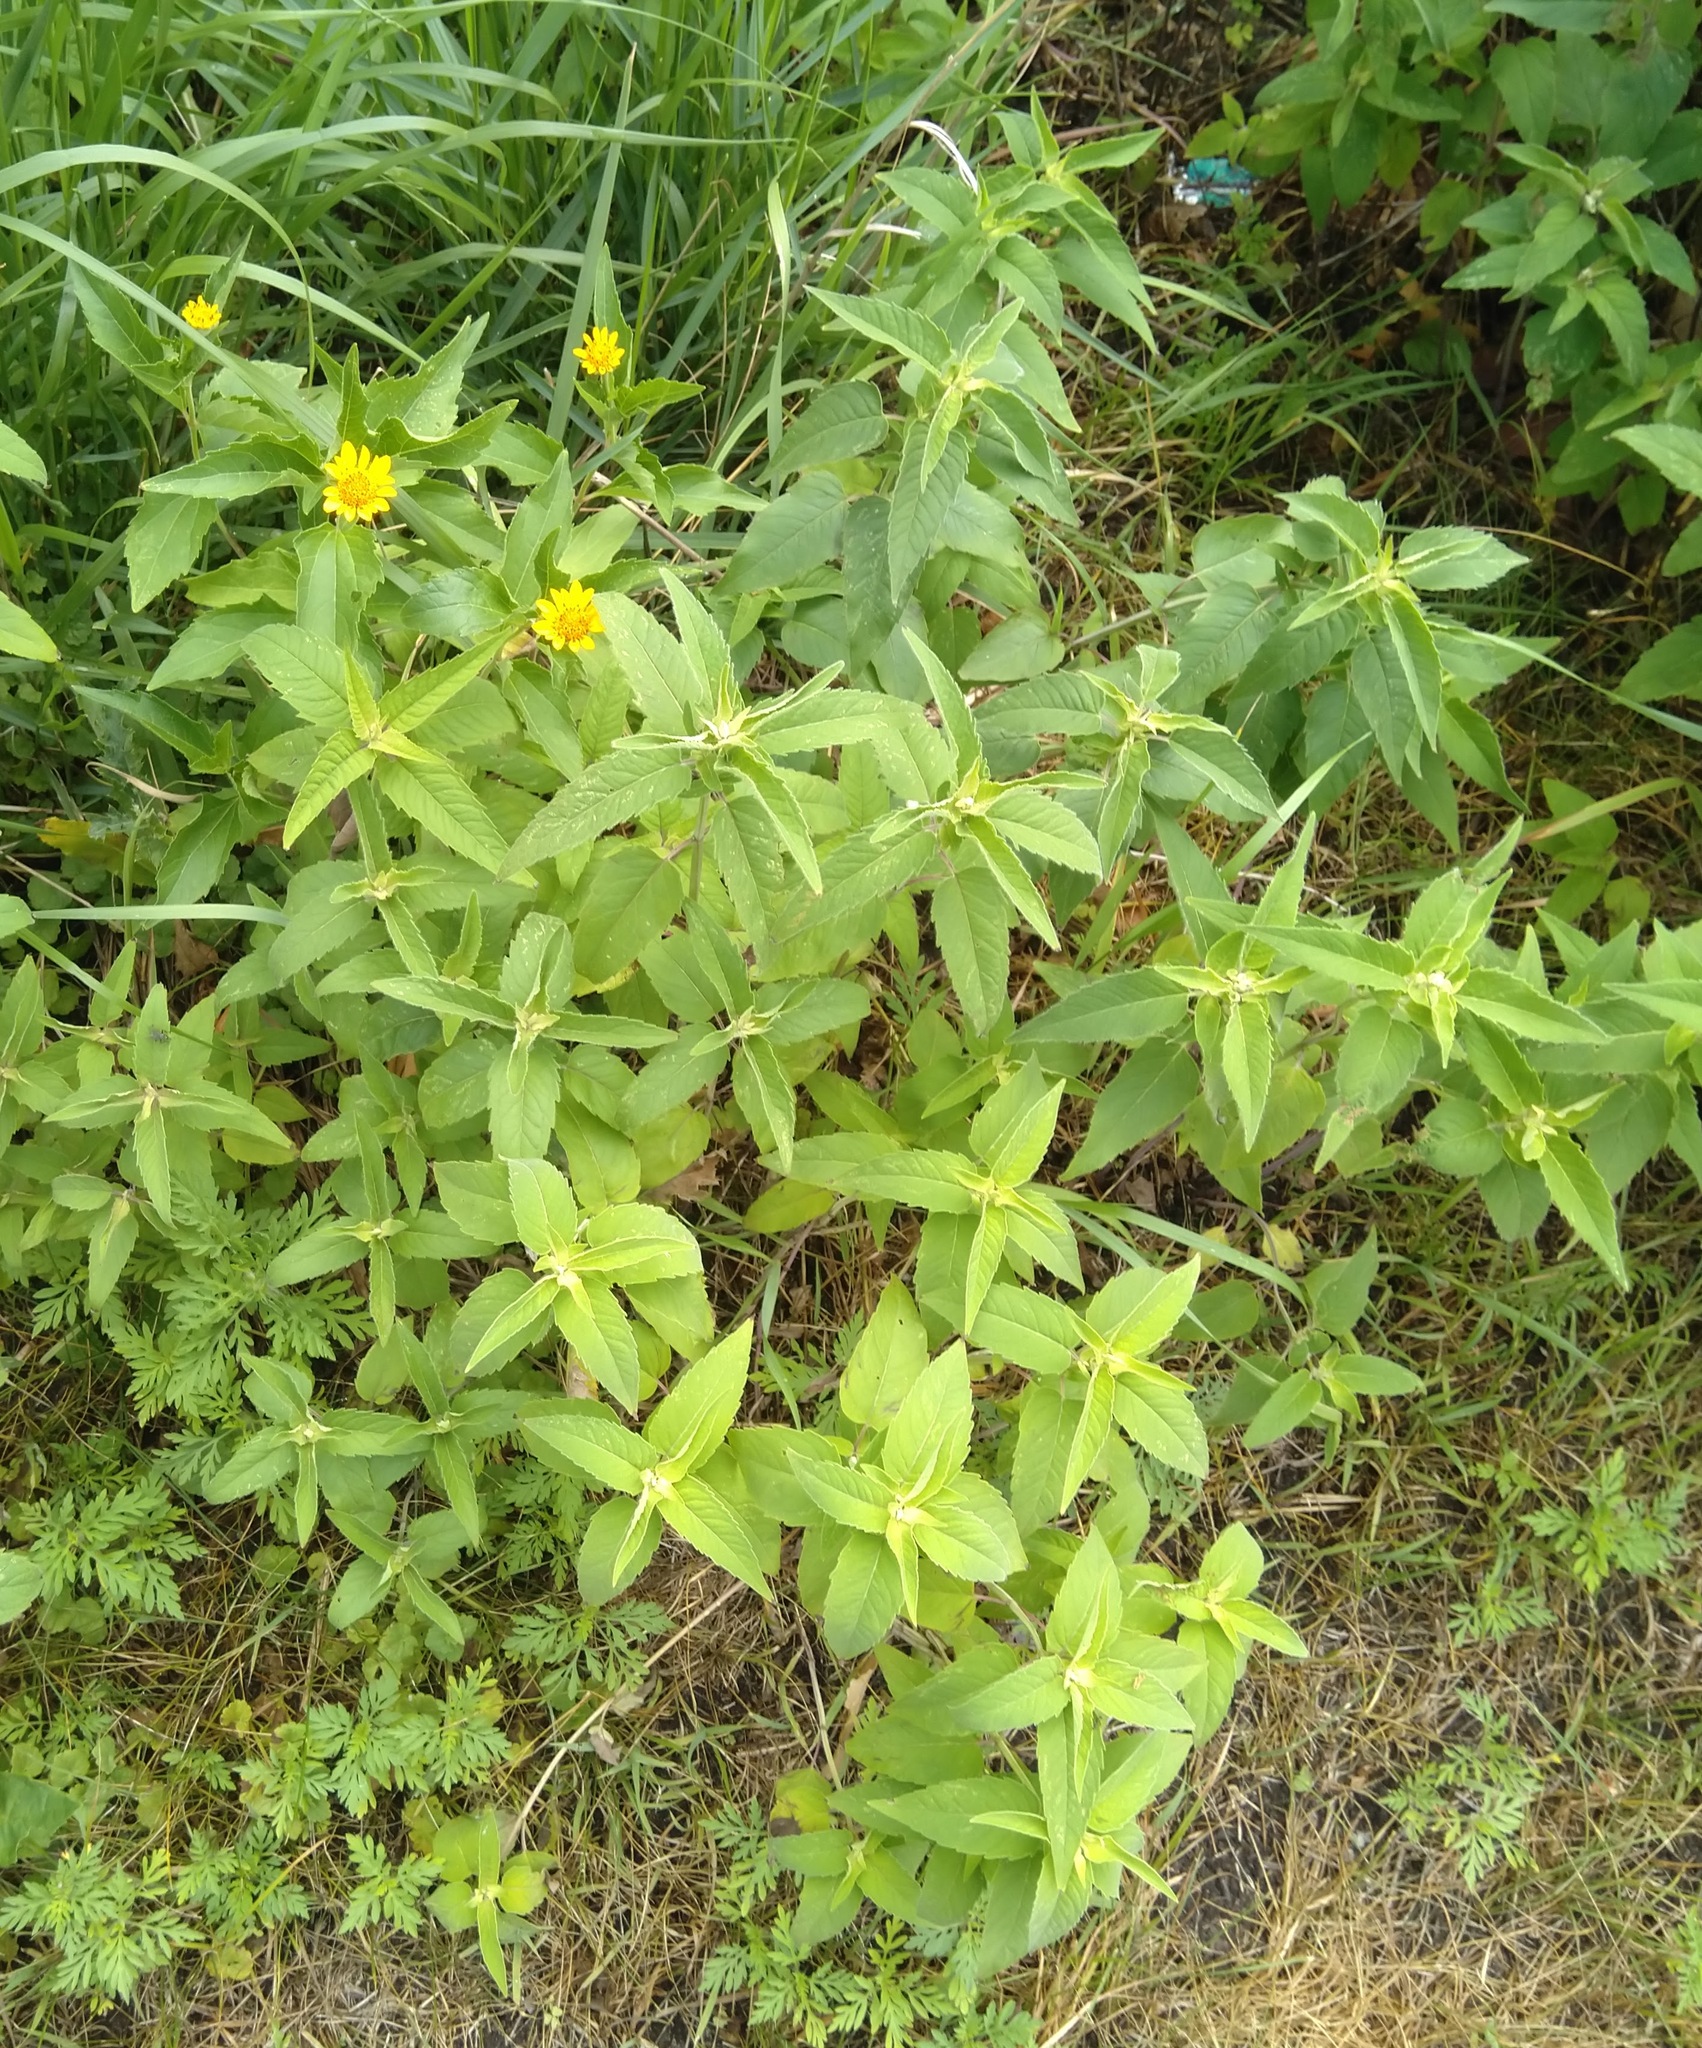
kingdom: Plantae
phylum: Tracheophyta
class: Magnoliopsida
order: Asterales
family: Asteraceae
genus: Heliopsis
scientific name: Heliopsis helianthoides
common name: False sunflower
